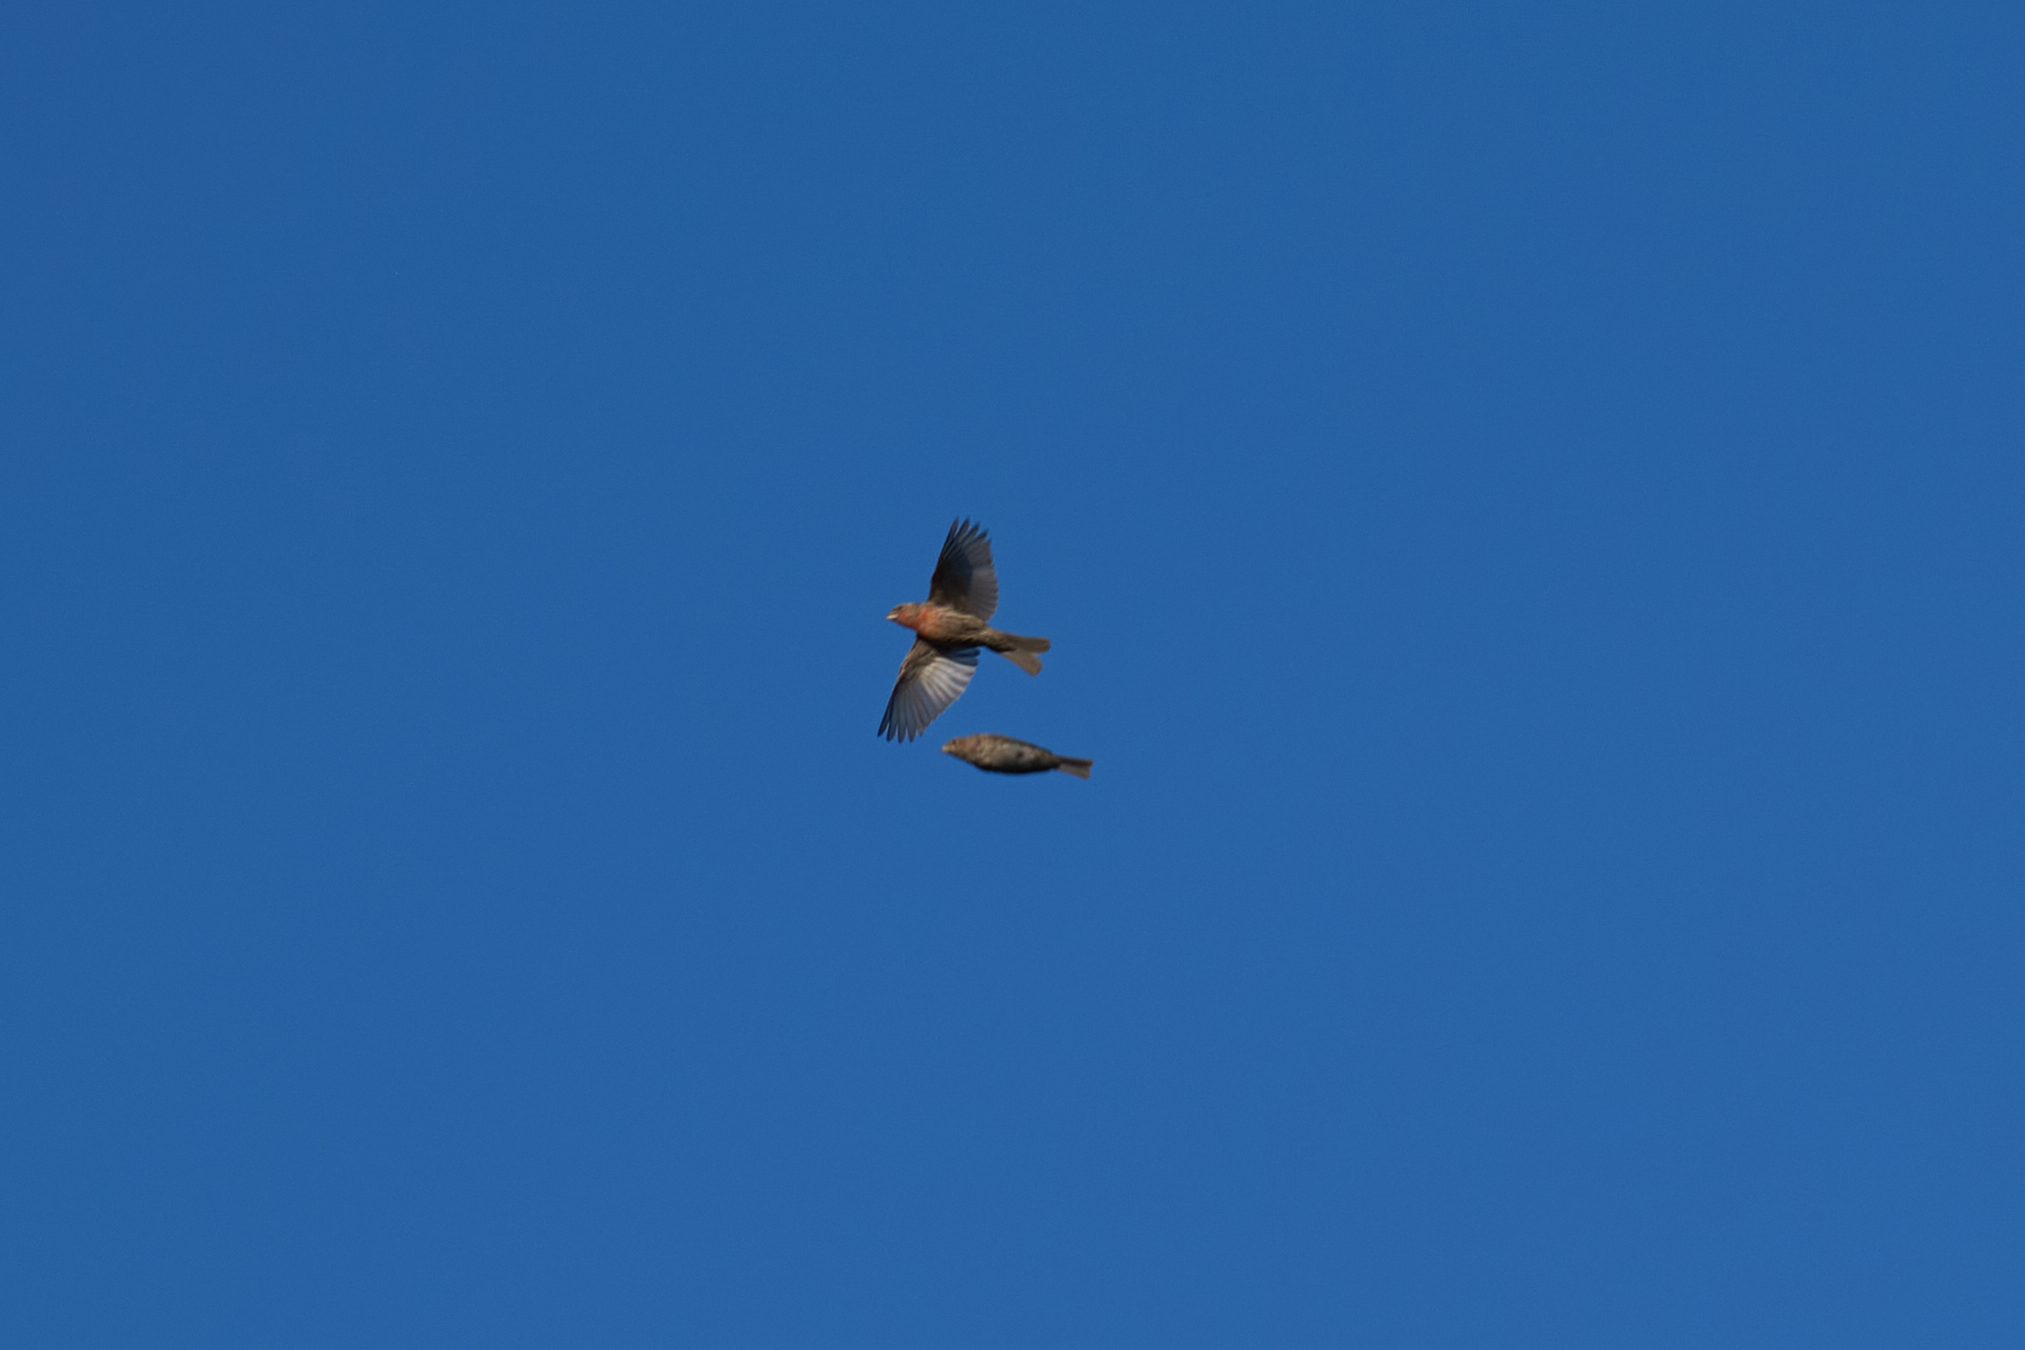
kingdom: Animalia
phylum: Chordata
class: Aves
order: Passeriformes
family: Fringillidae
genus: Haemorhous
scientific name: Haemorhous mexicanus
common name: House finch
